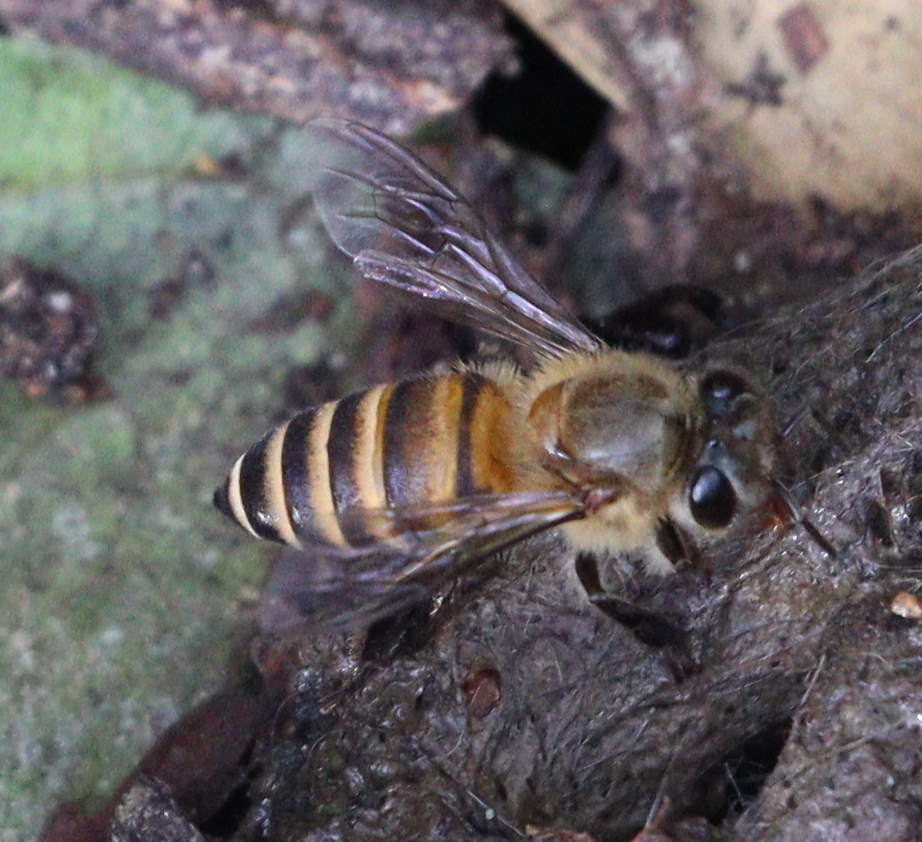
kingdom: Animalia
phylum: Arthropoda
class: Insecta
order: Hymenoptera
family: Apidae
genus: Apis
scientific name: Apis cerana
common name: Honey bee
